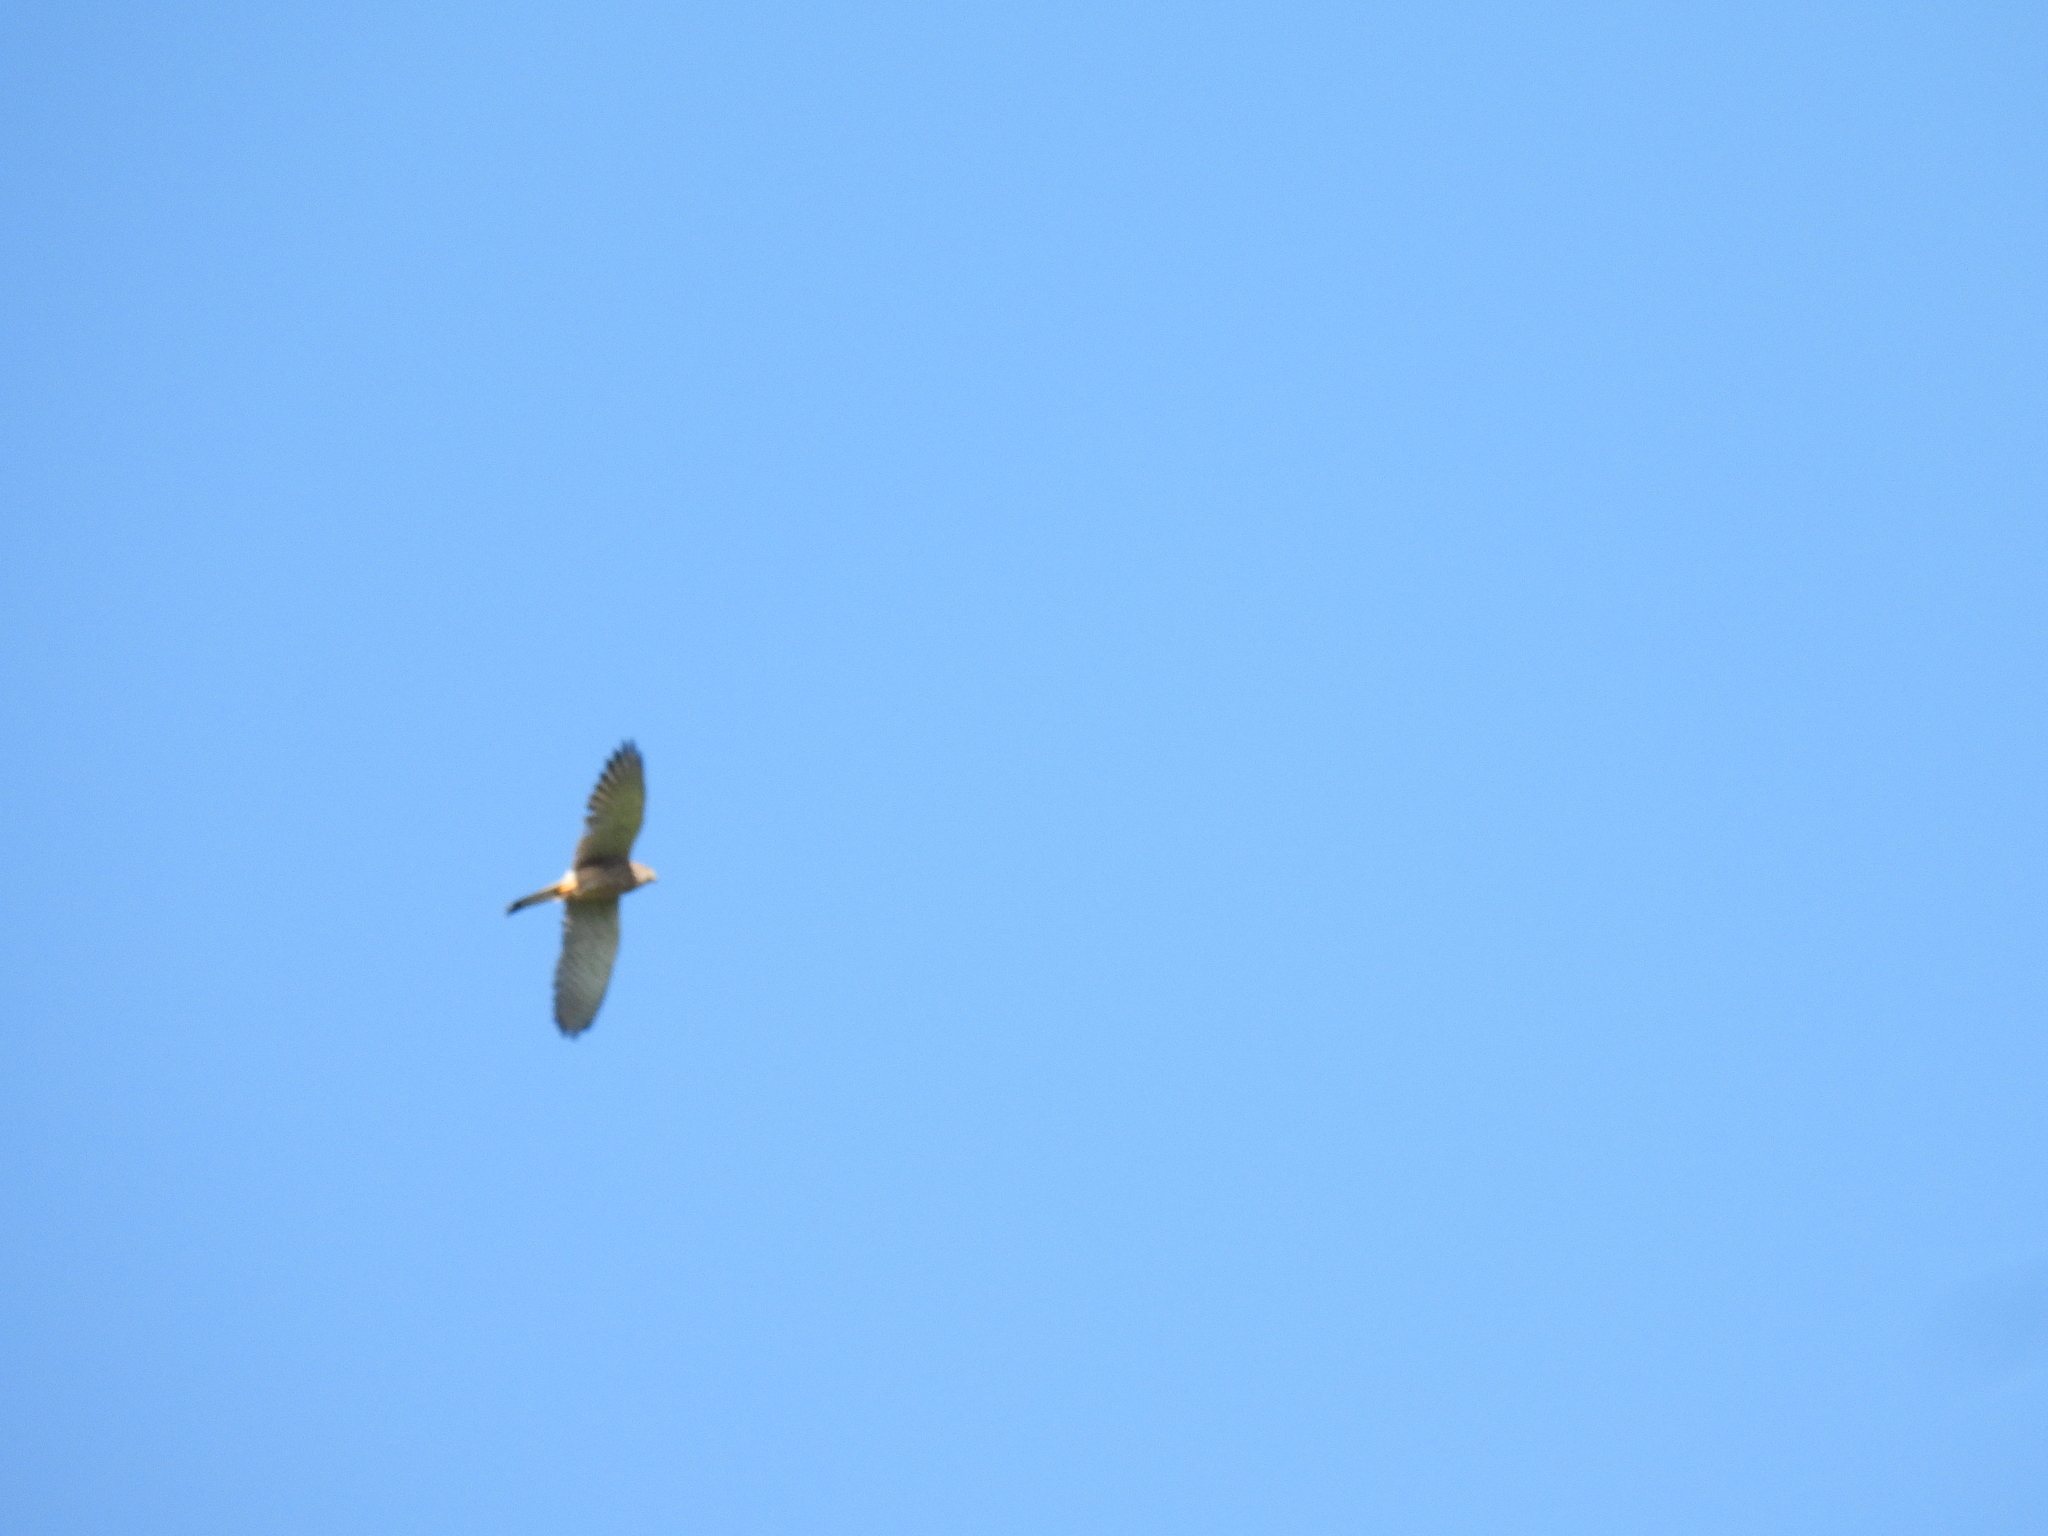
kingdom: Animalia
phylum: Chordata
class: Aves
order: Falconiformes
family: Falconidae
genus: Falco
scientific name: Falco tinnunculus
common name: Common kestrel
